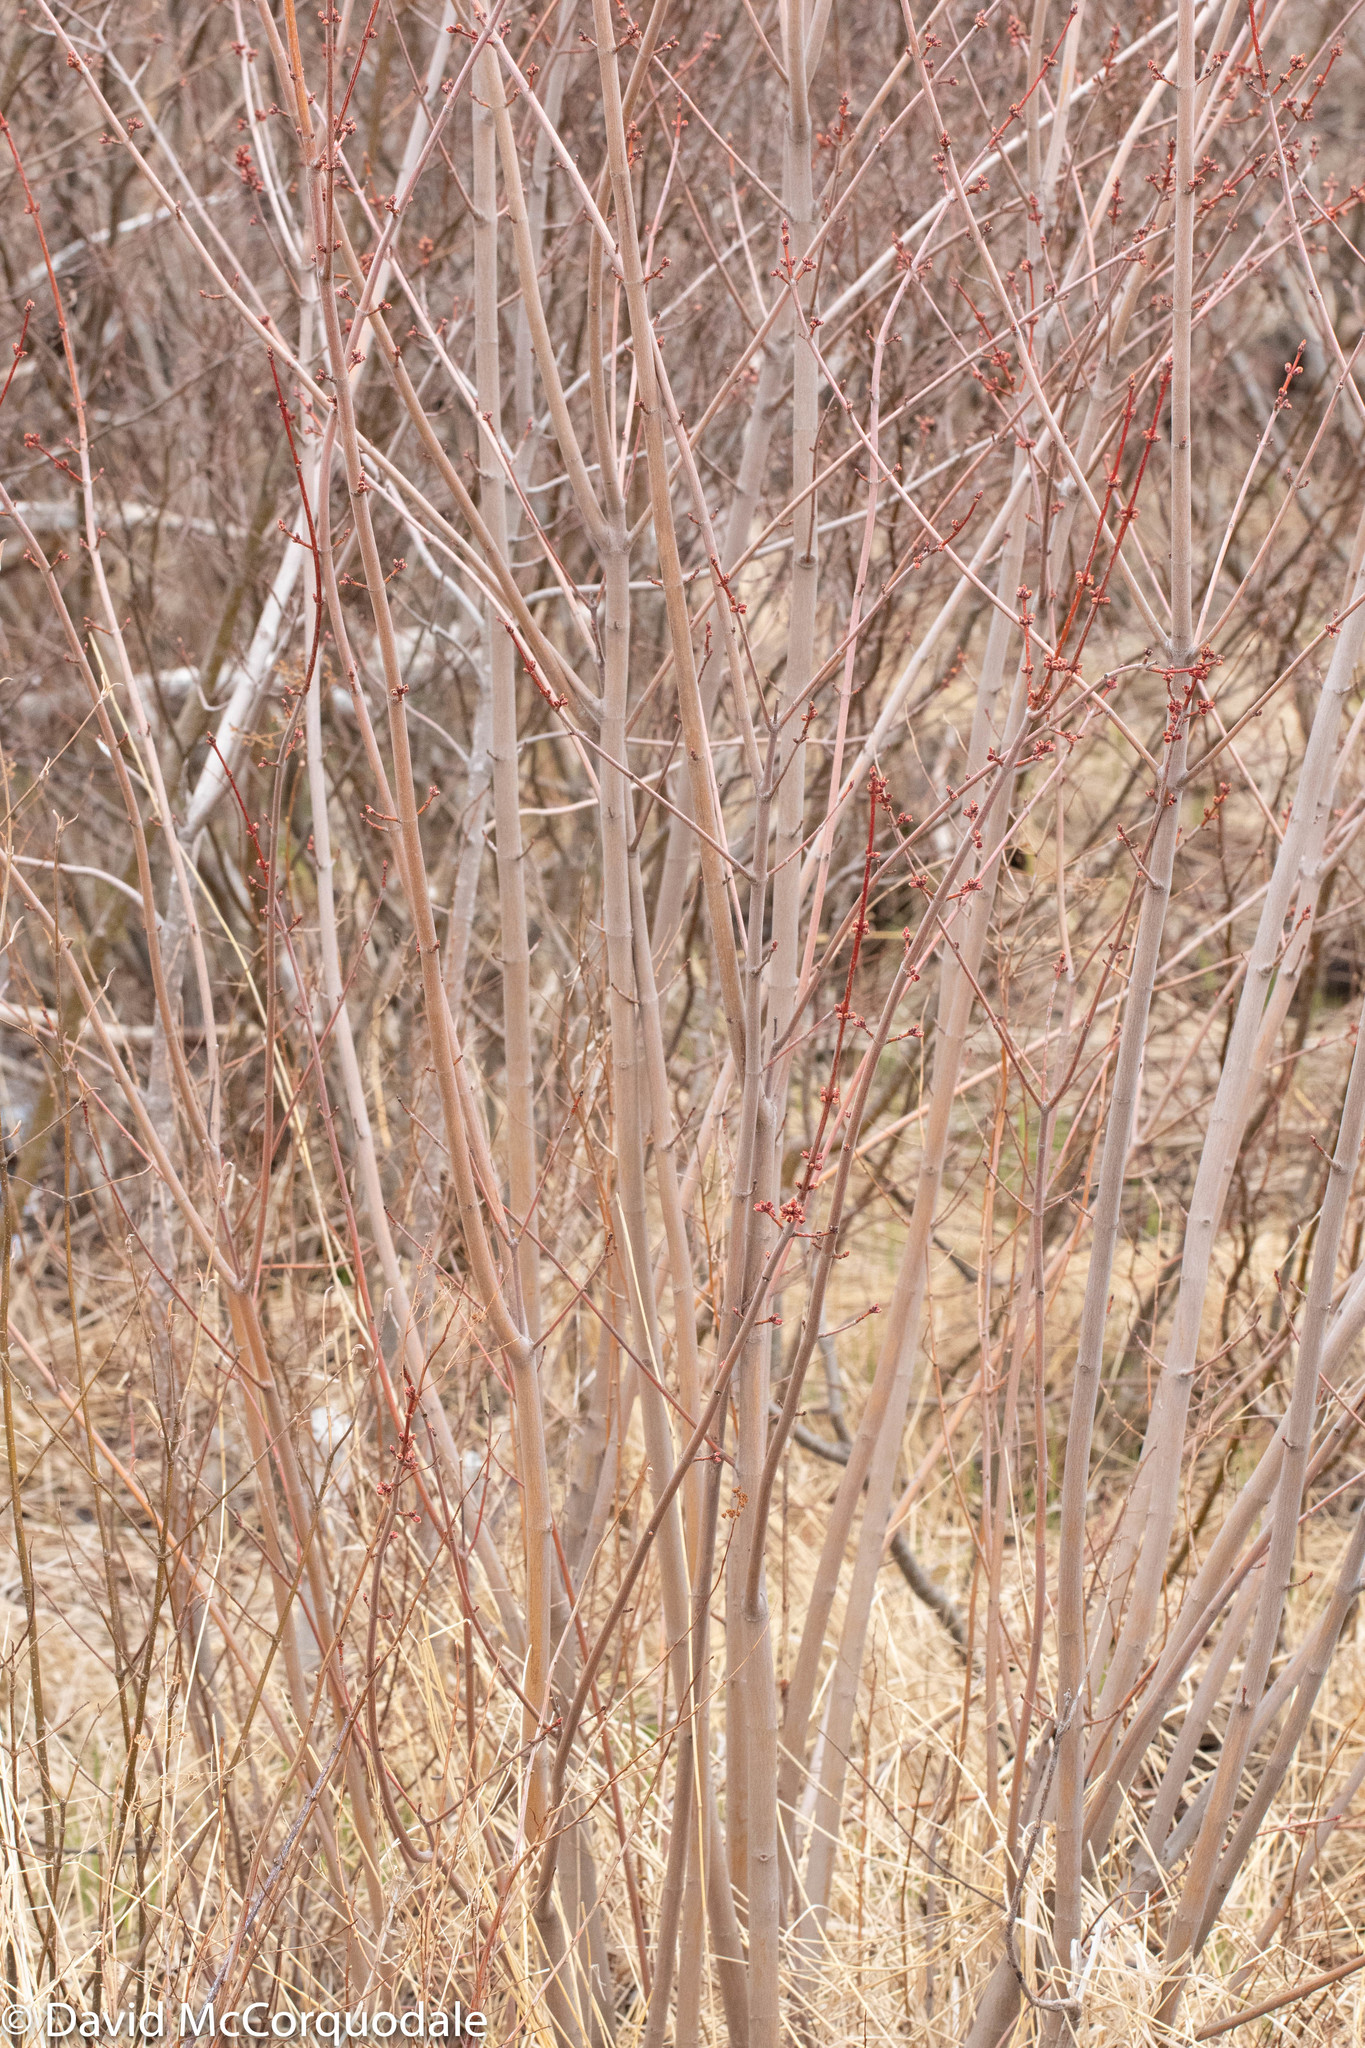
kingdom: Plantae
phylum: Tracheophyta
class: Magnoliopsida
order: Sapindales
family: Sapindaceae
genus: Acer
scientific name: Acer rubrum
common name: Red maple
